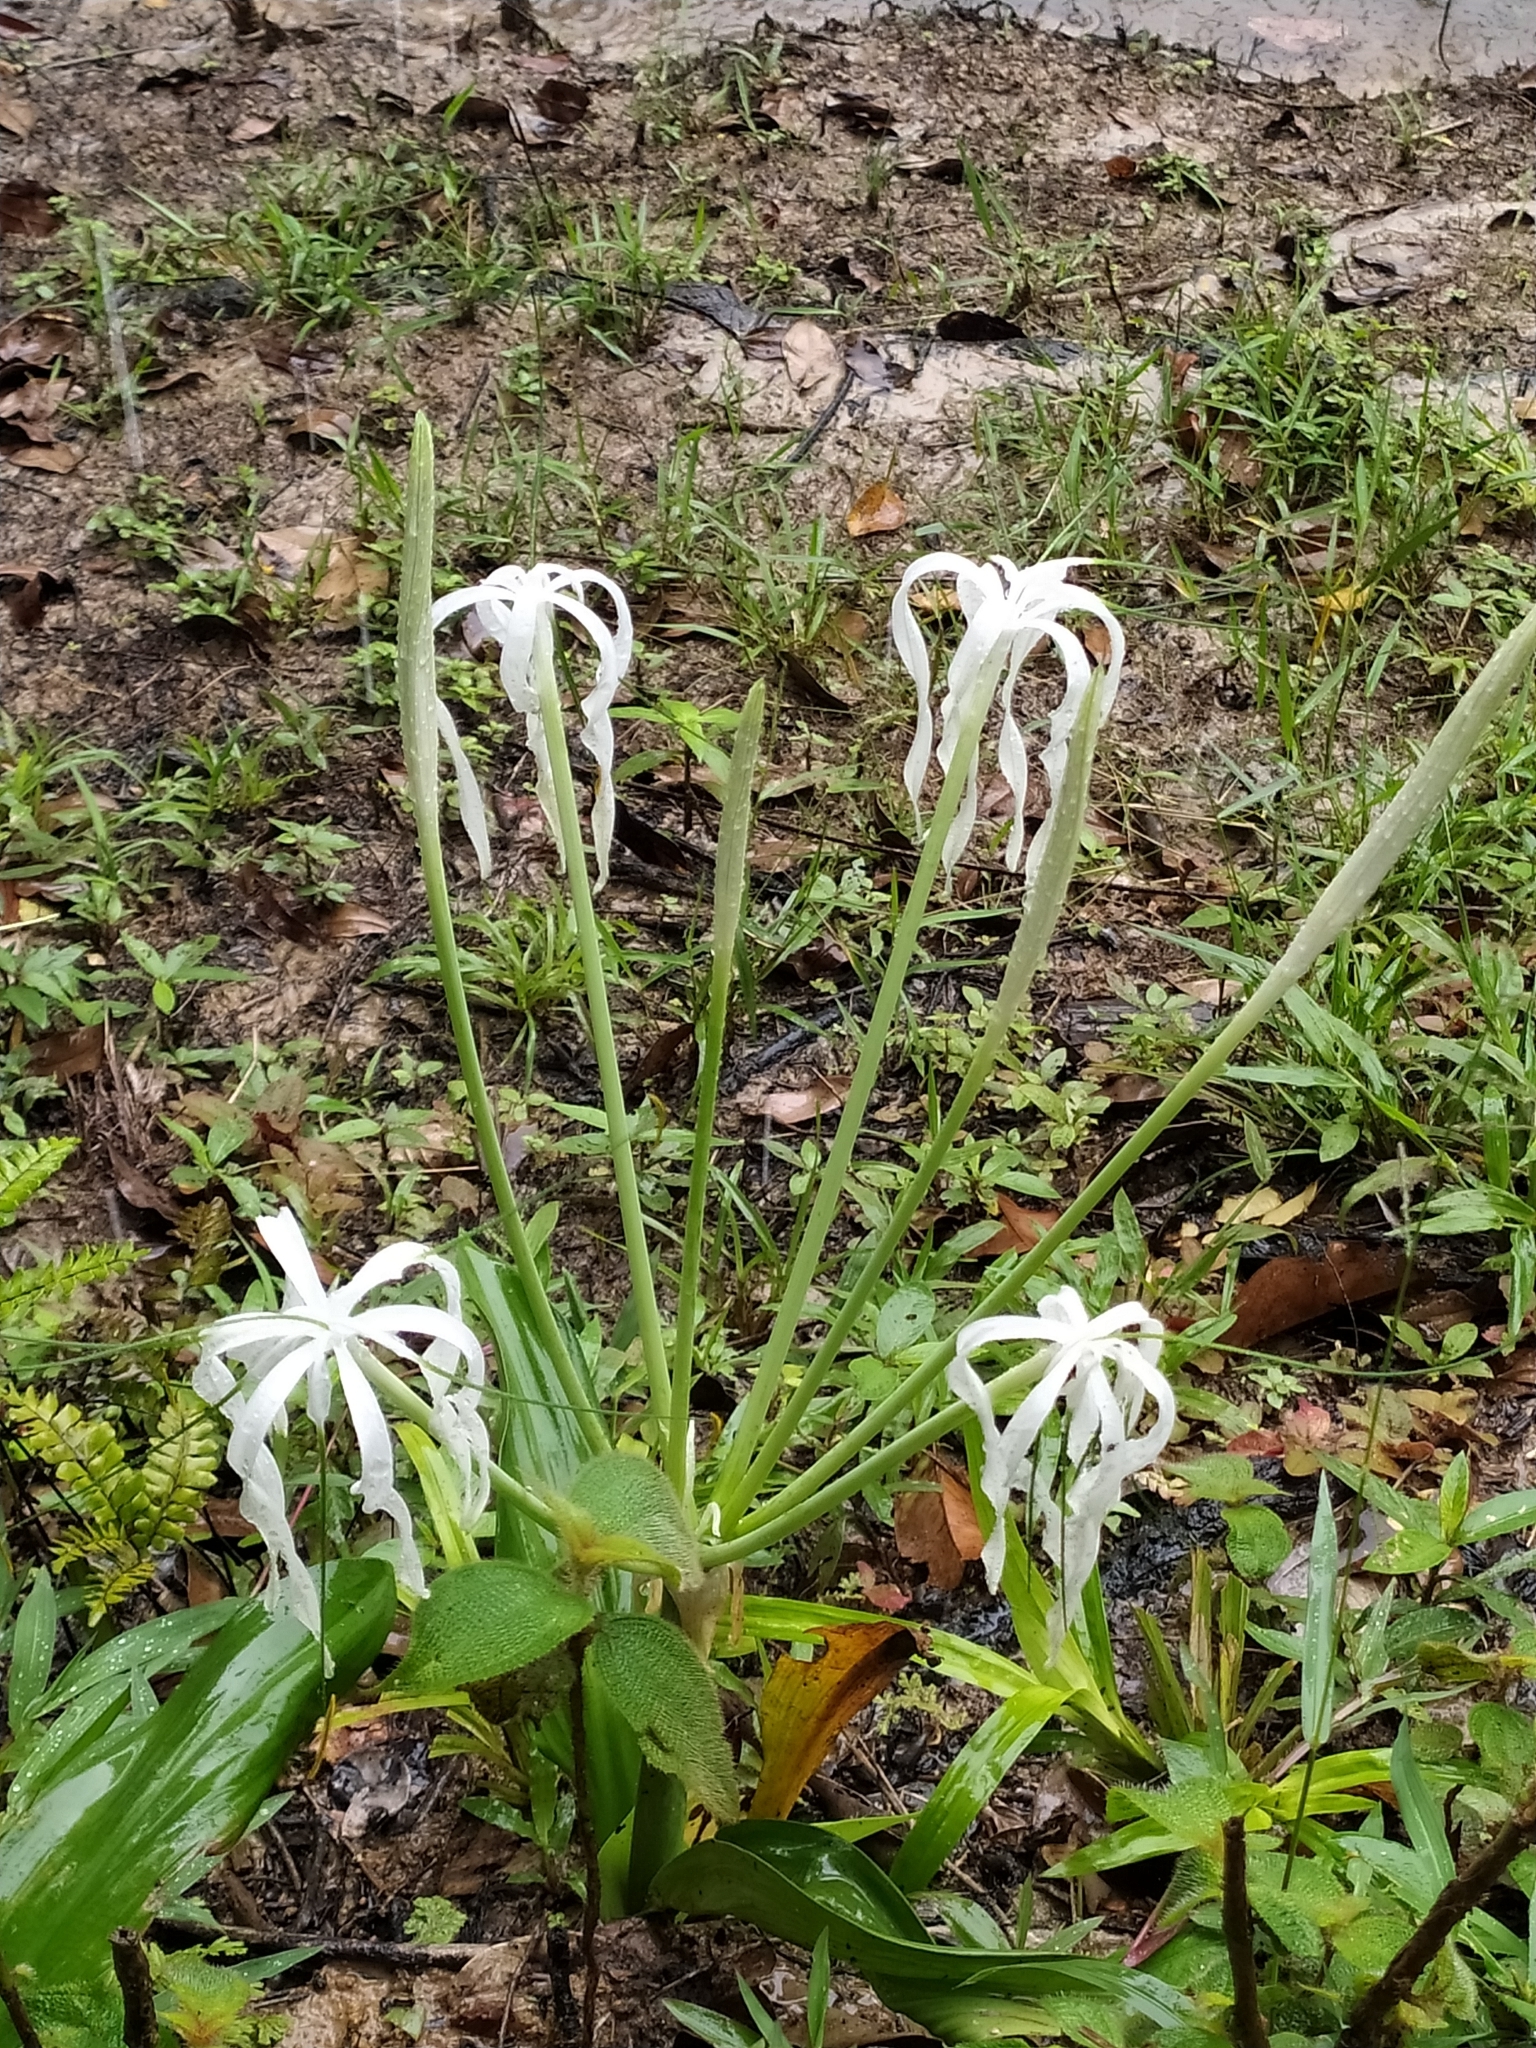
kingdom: Plantae
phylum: Tracheophyta
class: Liliopsida
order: Asparagales
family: Amaryllidaceae
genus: Hymenocallis
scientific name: Hymenocallis tubiflora
